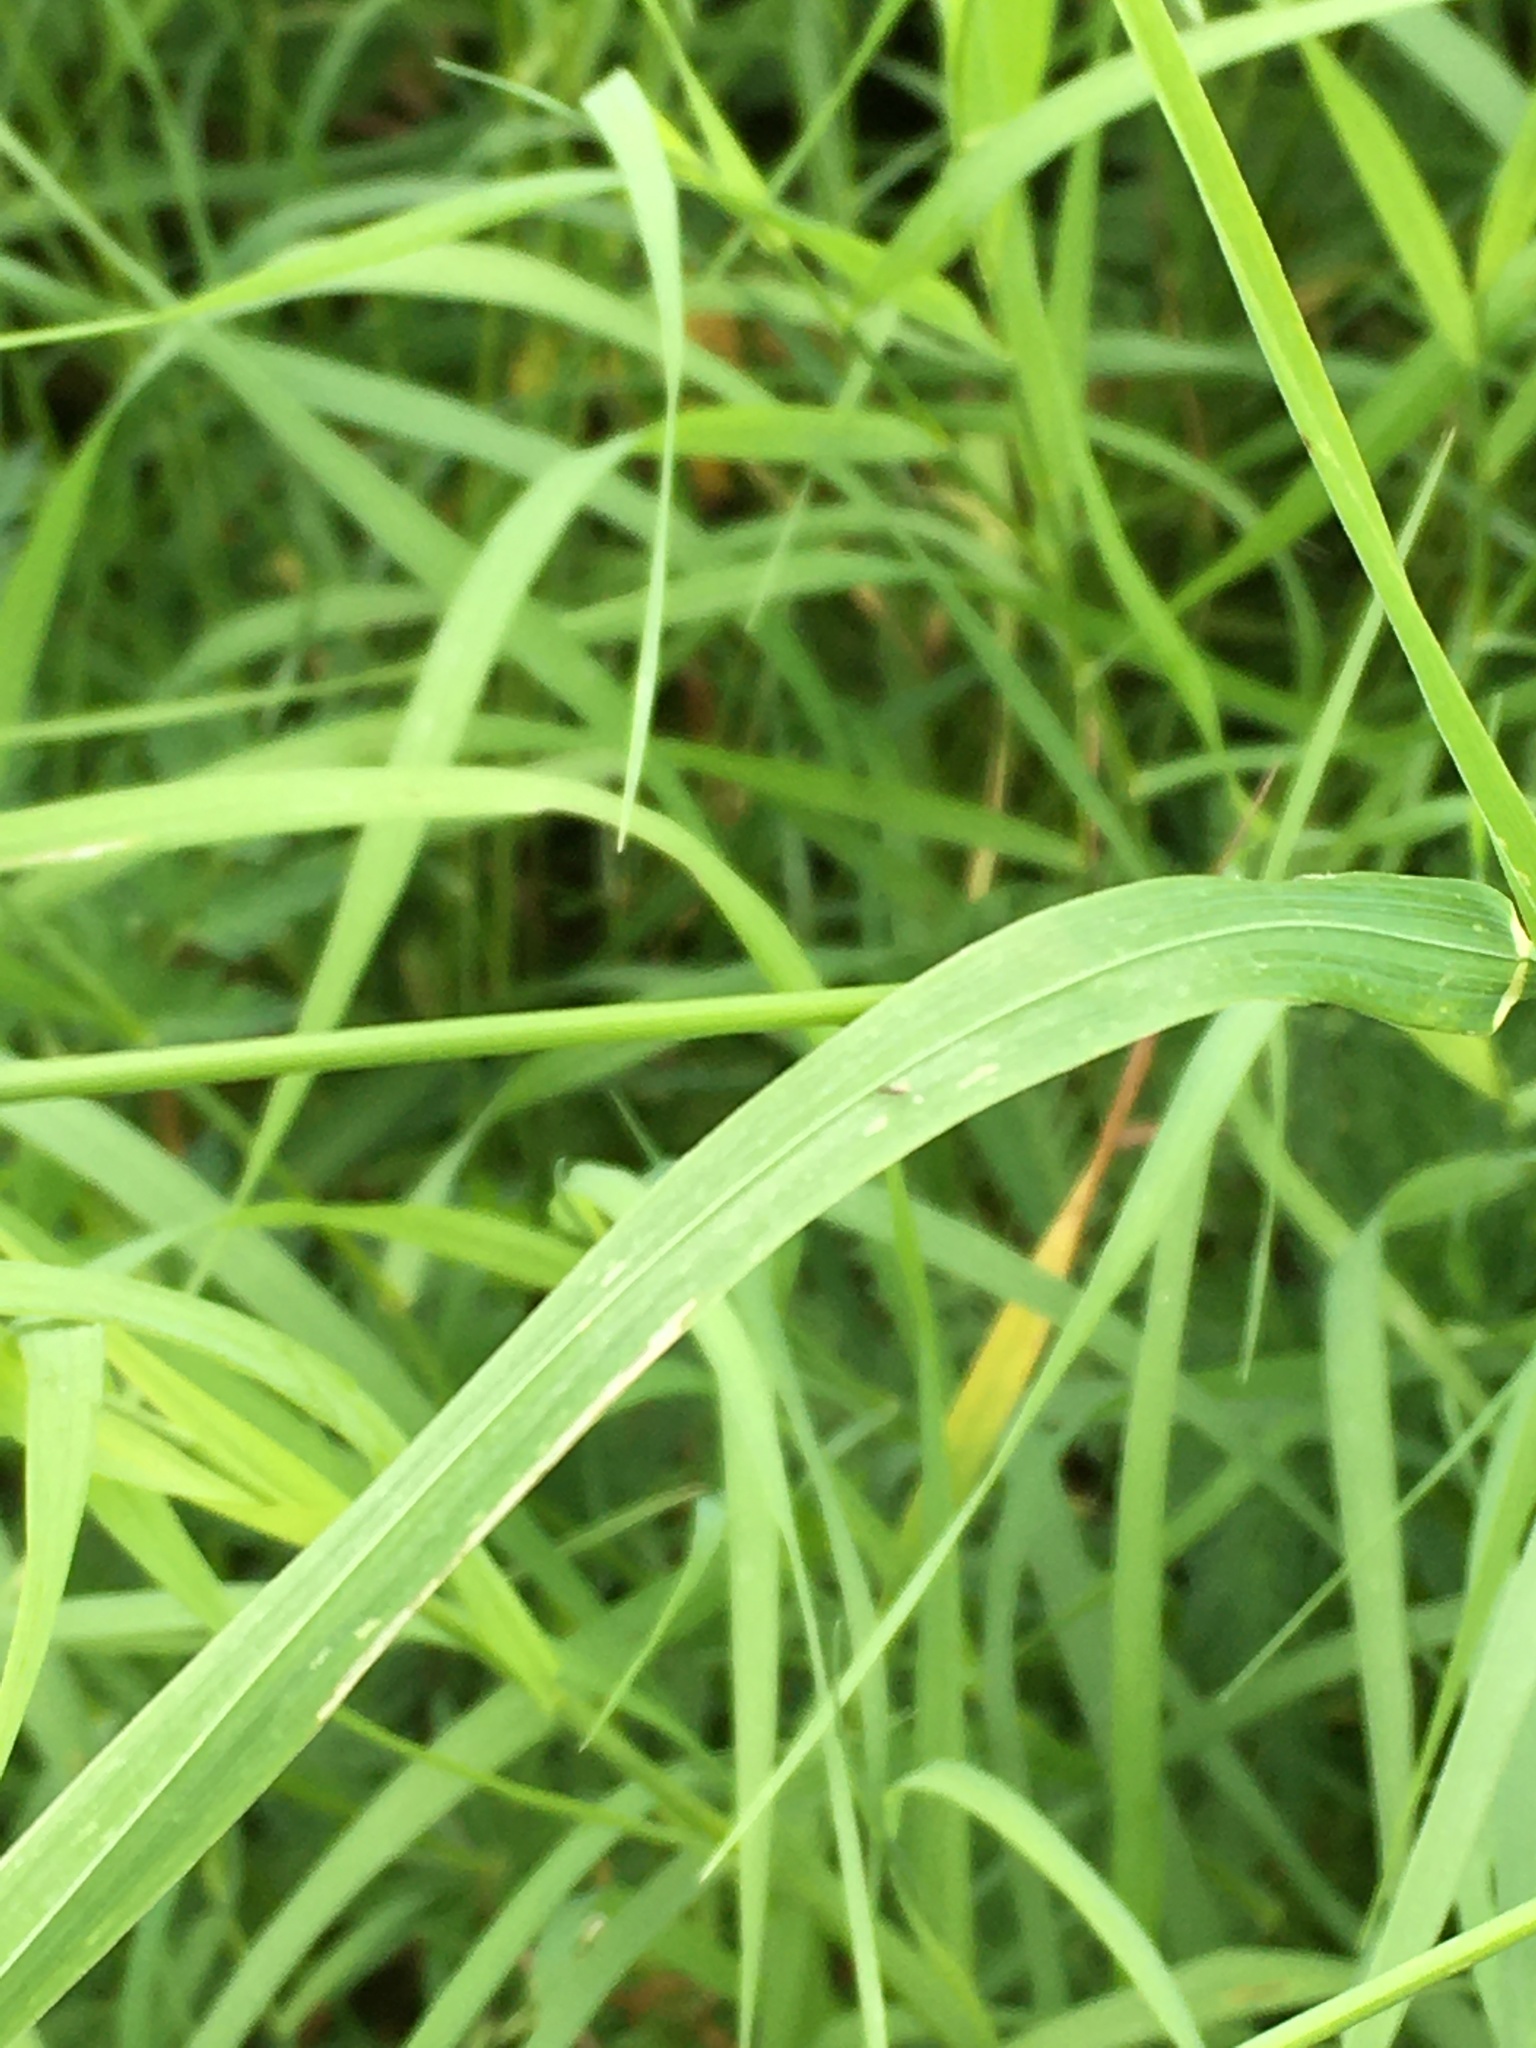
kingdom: Plantae
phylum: Tracheophyta
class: Liliopsida
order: Poales
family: Poaceae
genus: Dactylis
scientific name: Dactylis glomerata
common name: Orchardgrass
